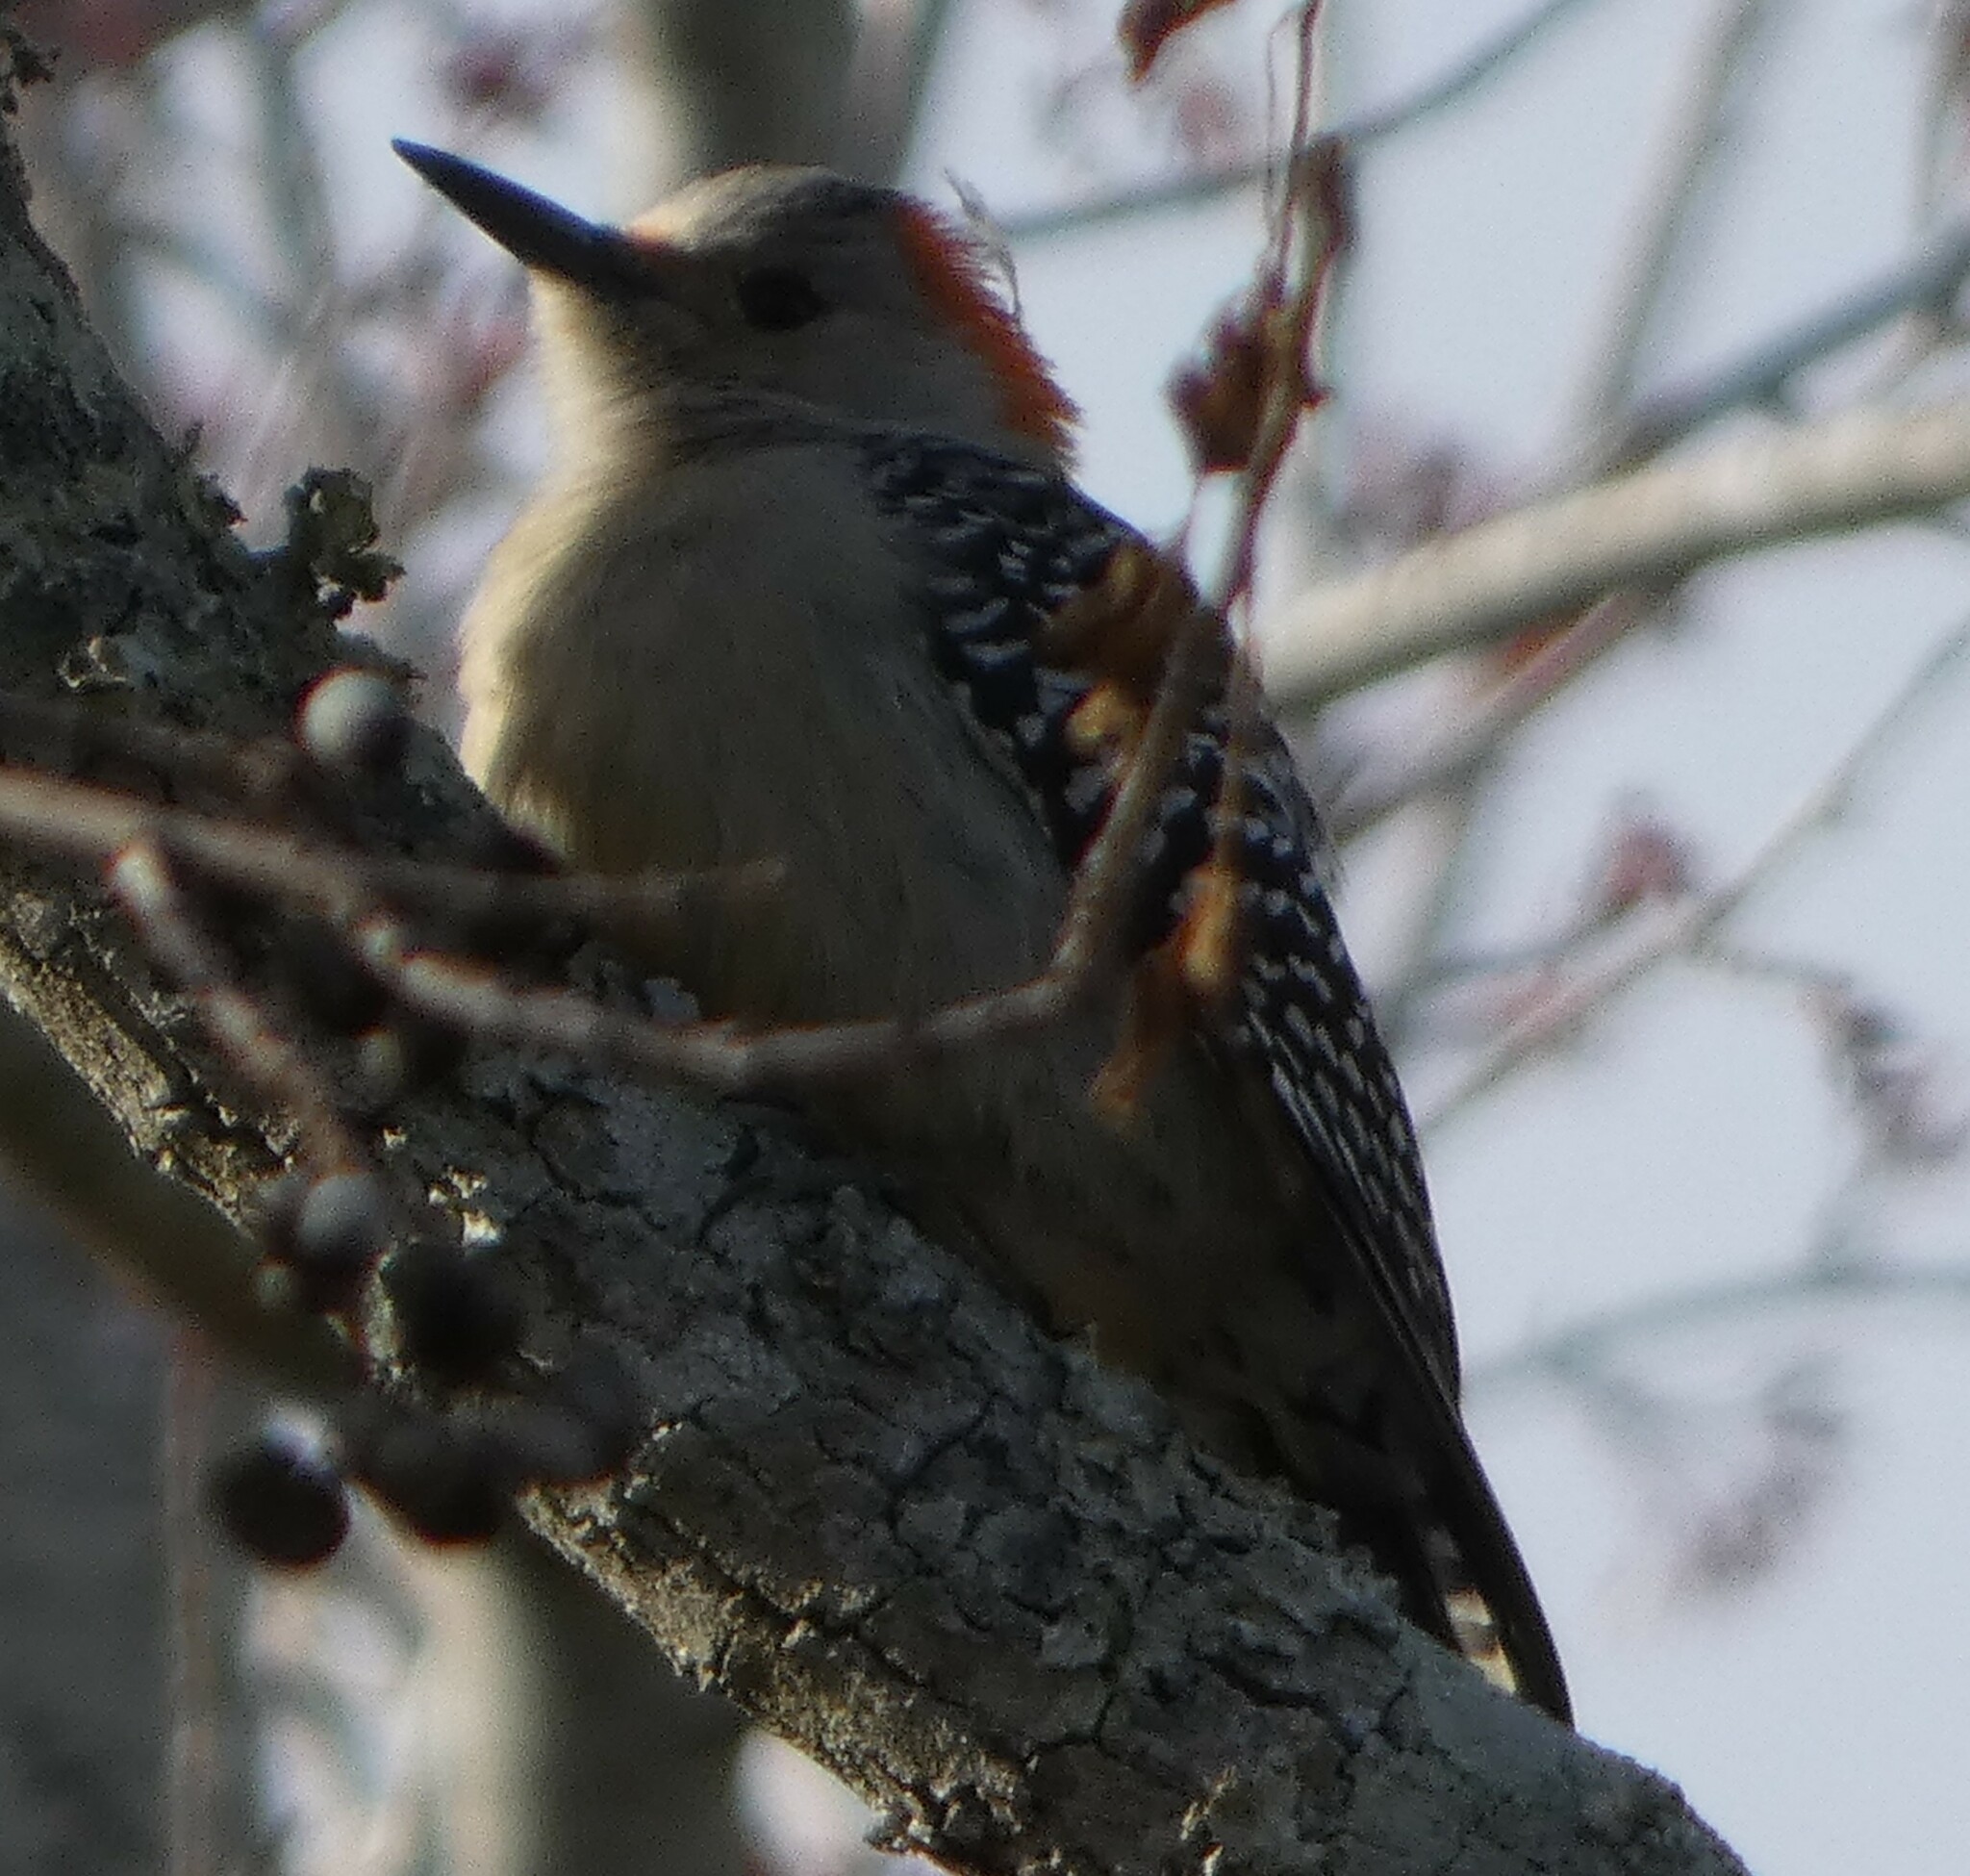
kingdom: Animalia
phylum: Chordata
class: Aves
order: Piciformes
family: Picidae
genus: Melanerpes
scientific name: Melanerpes carolinus
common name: Red-bellied woodpecker
